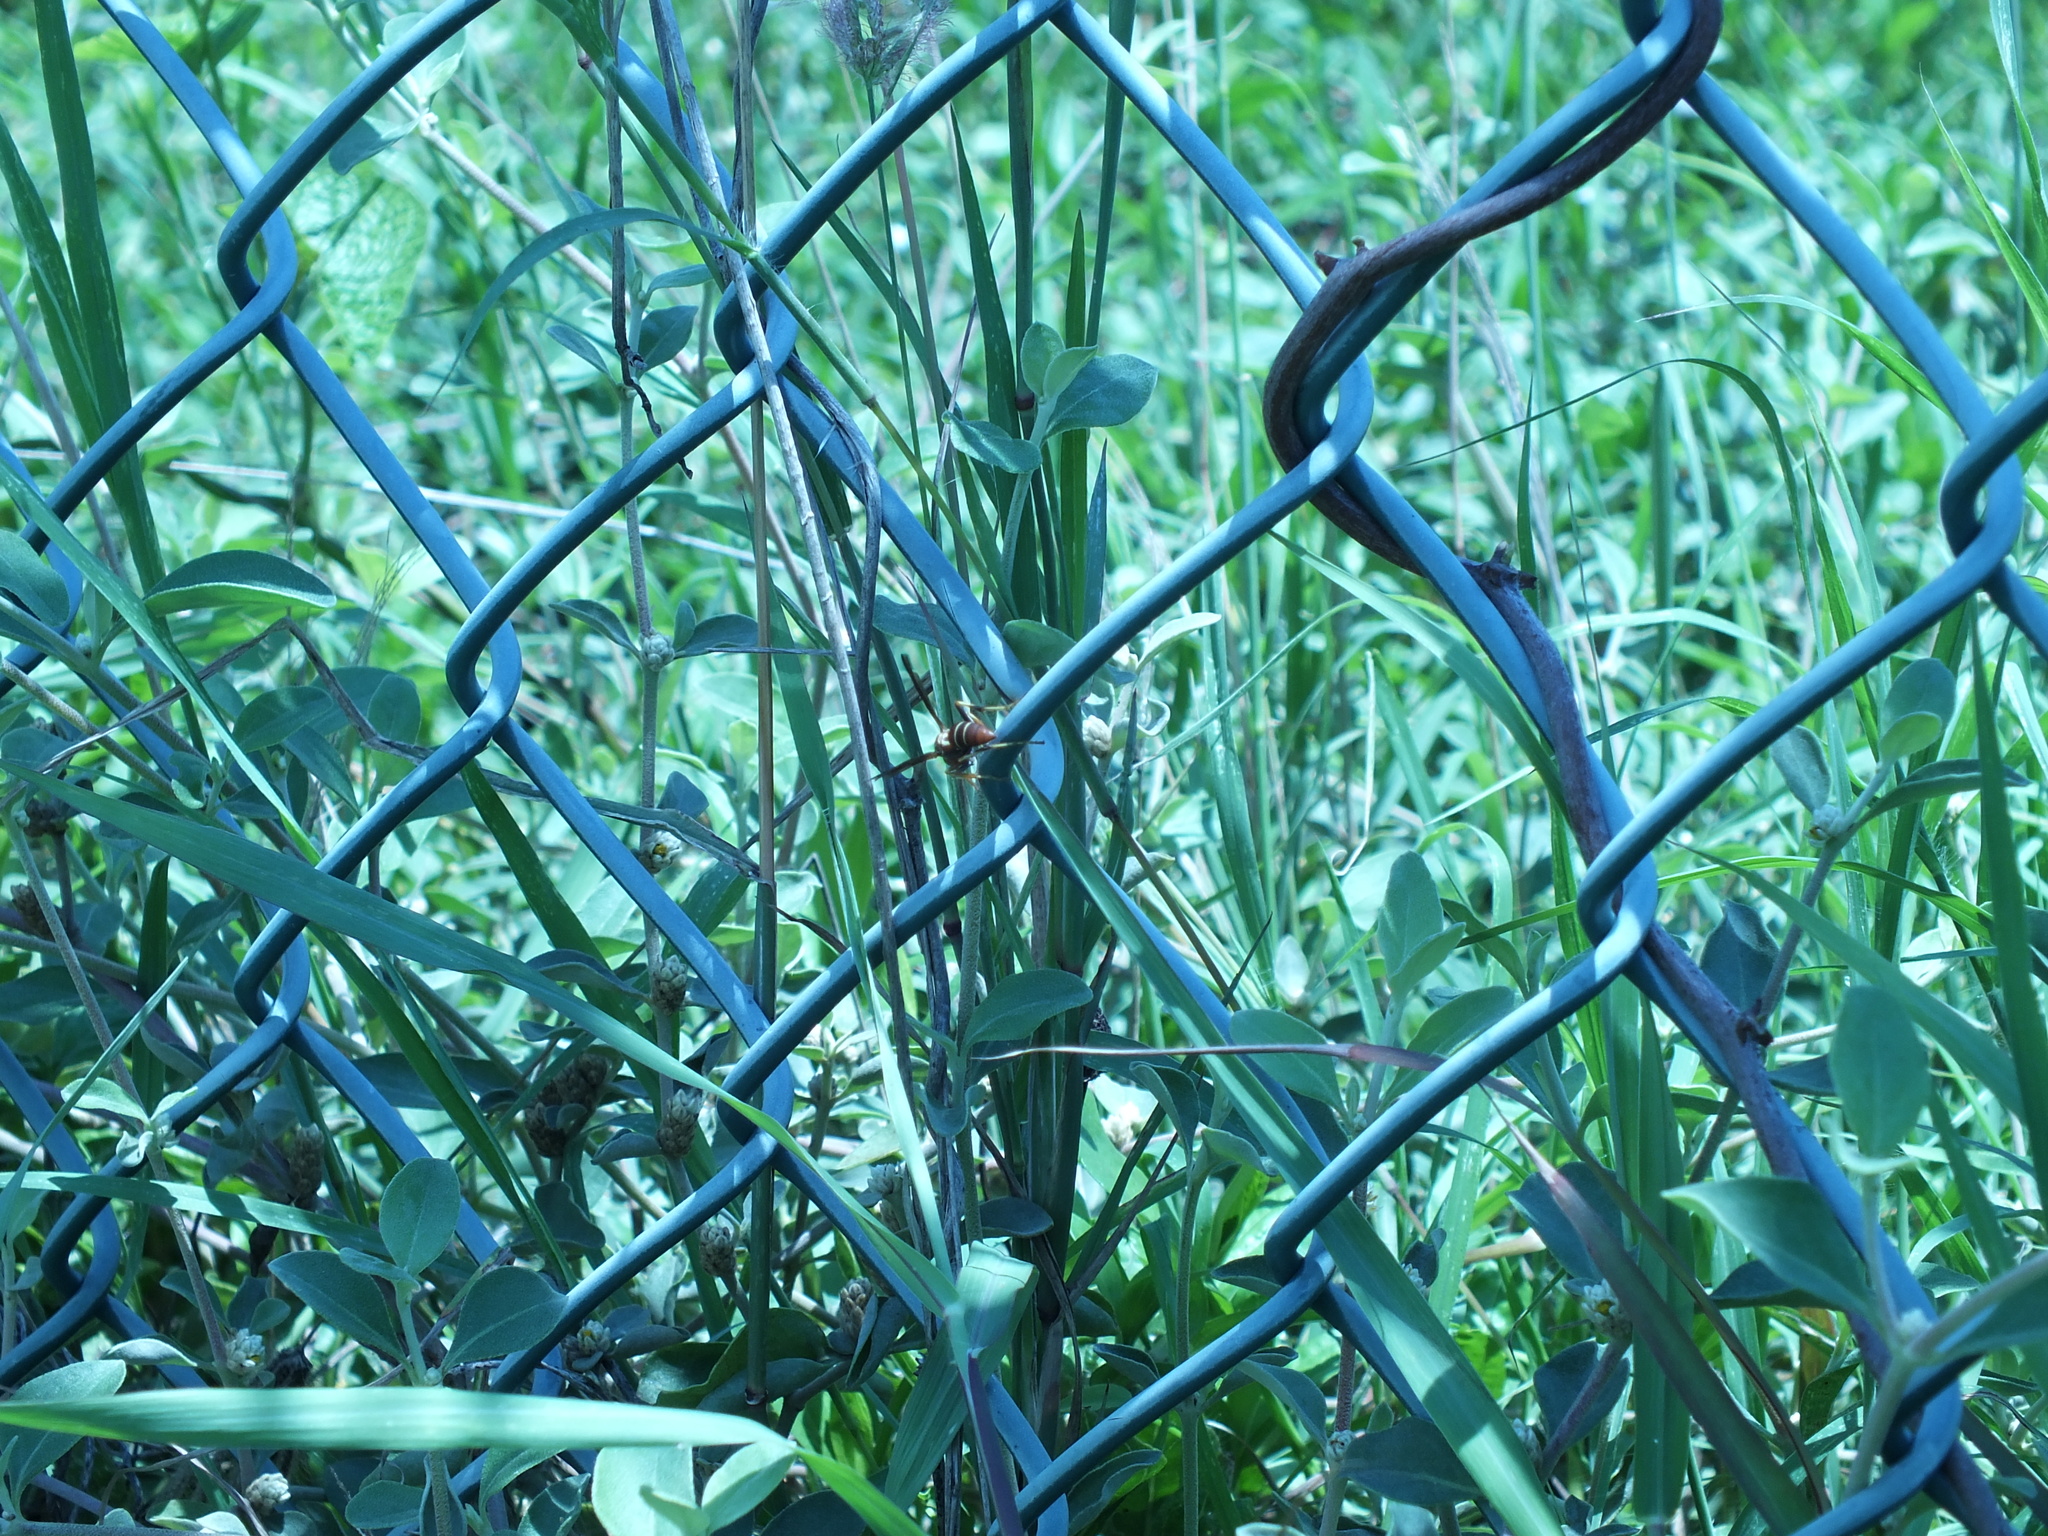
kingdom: Animalia
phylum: Arthropoda
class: Insecta
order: Hymenoptera
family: Eumenidae
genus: Polistes
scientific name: Polistes dorsalis
